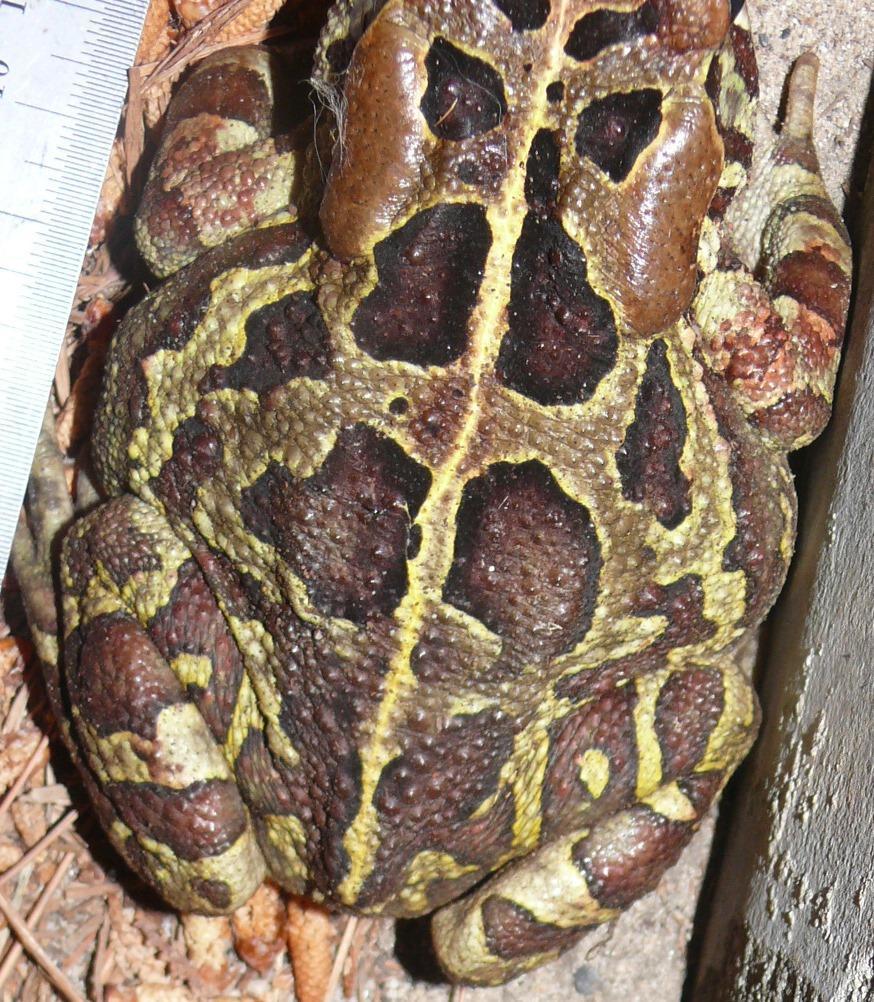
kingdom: Animalia
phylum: Chordata
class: Amphibia
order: Anura
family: Bufonidae
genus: Sclerophrys
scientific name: Sclerophrys pantherina
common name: Panther toad
